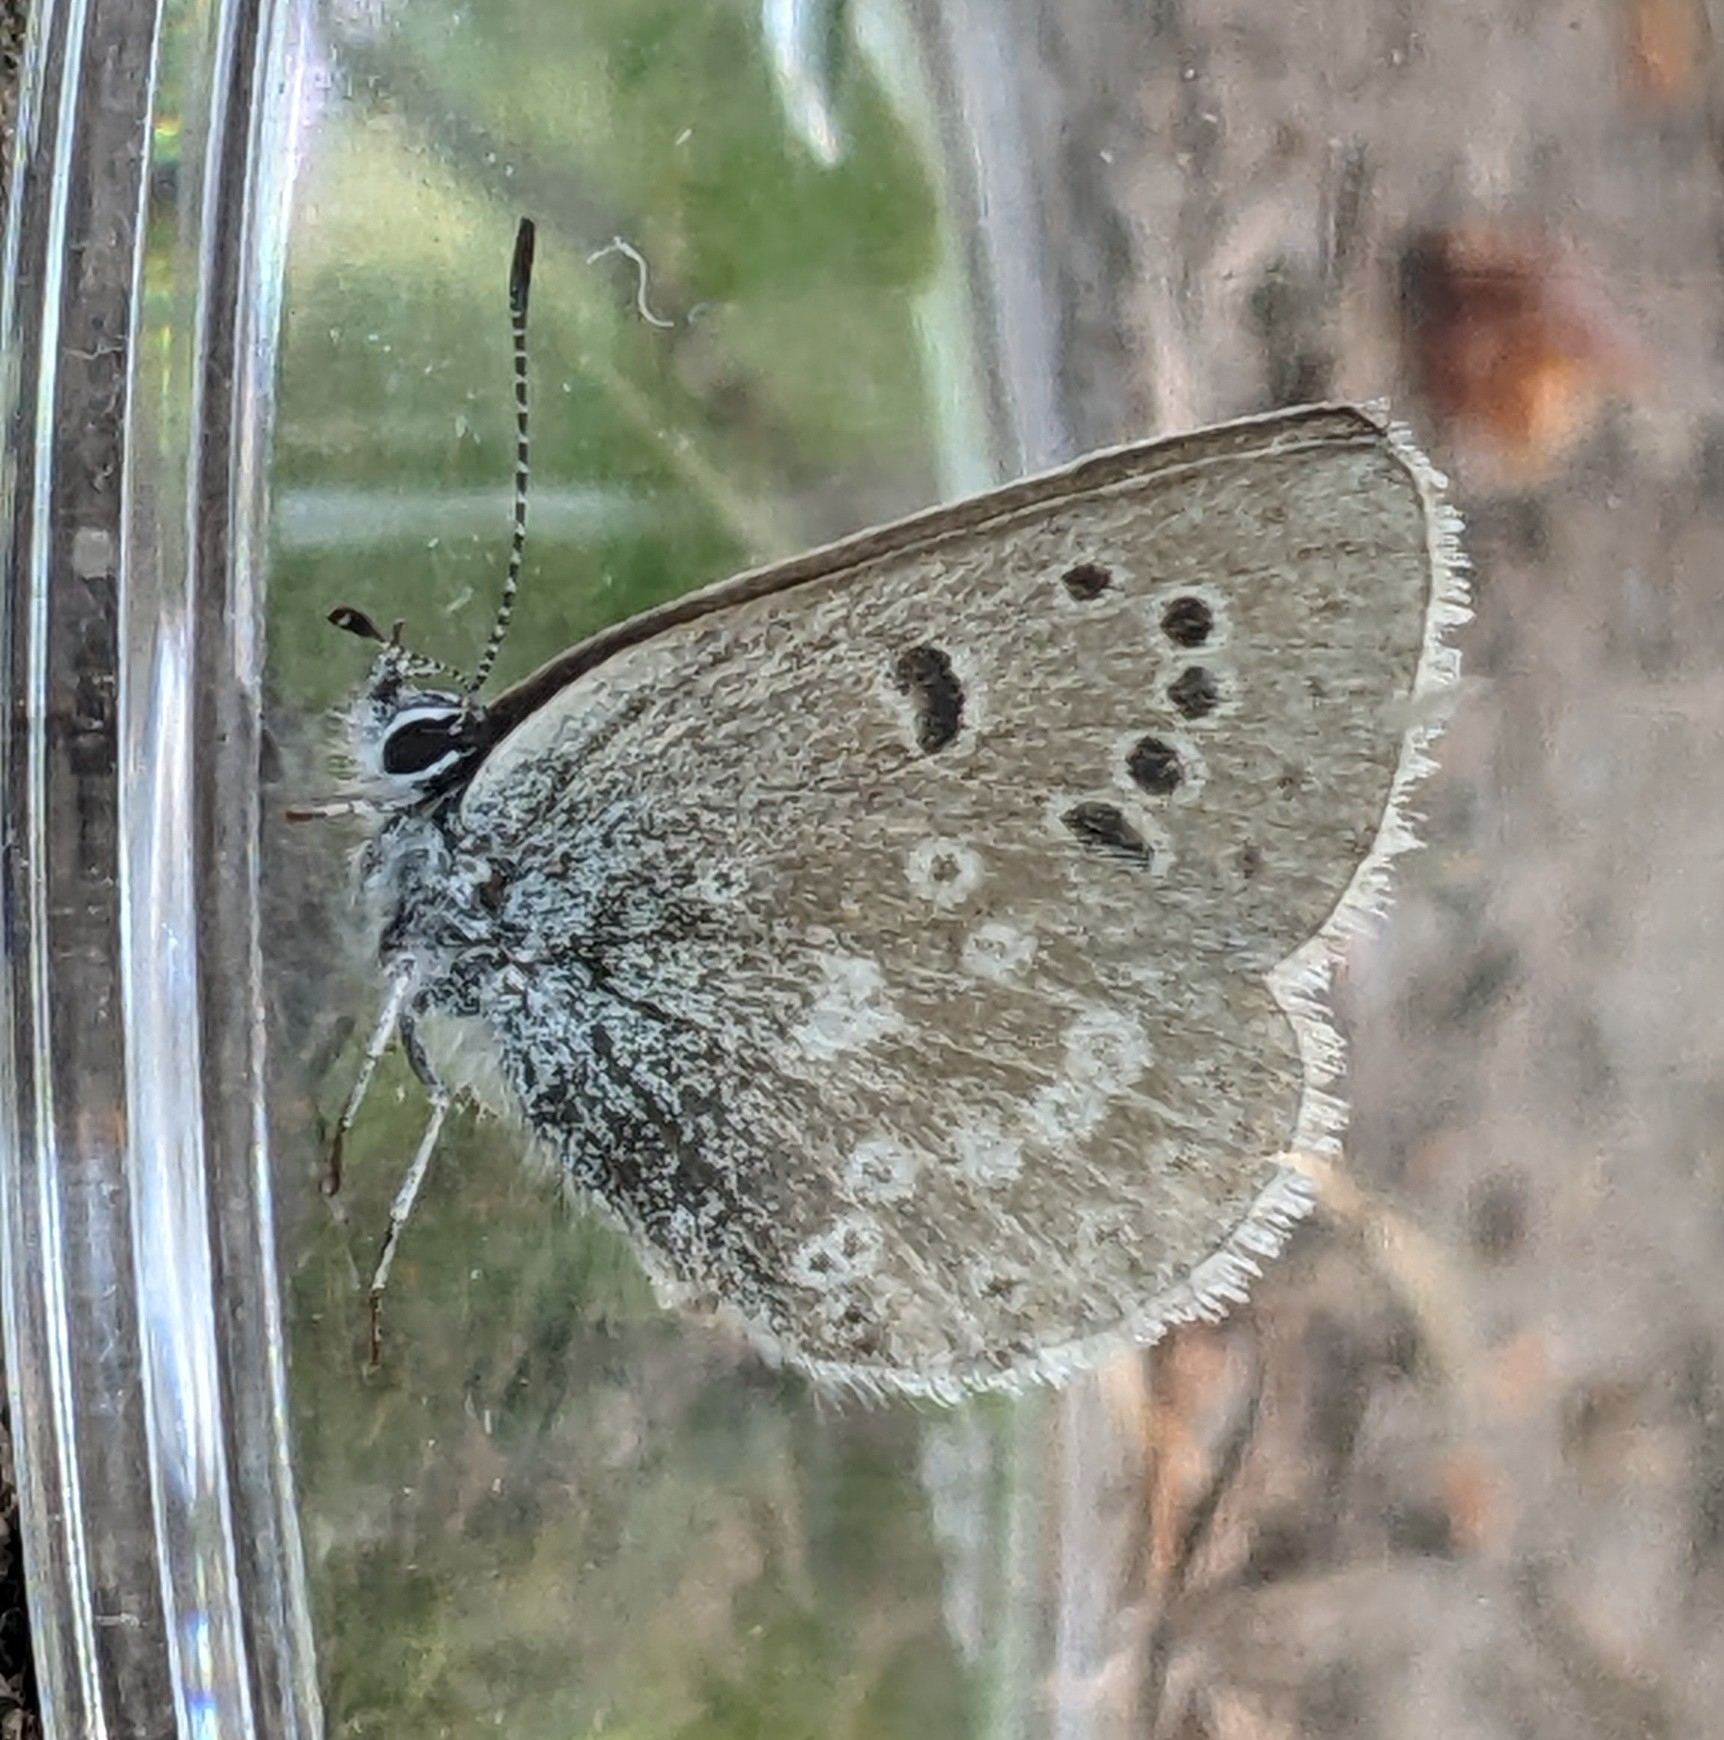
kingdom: Animalia
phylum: Arthropoda
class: Insecta
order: Lepidoptera
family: Lycaenidae
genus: Icaricia
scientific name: Icaricia icarioides
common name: Boisduval's blue
